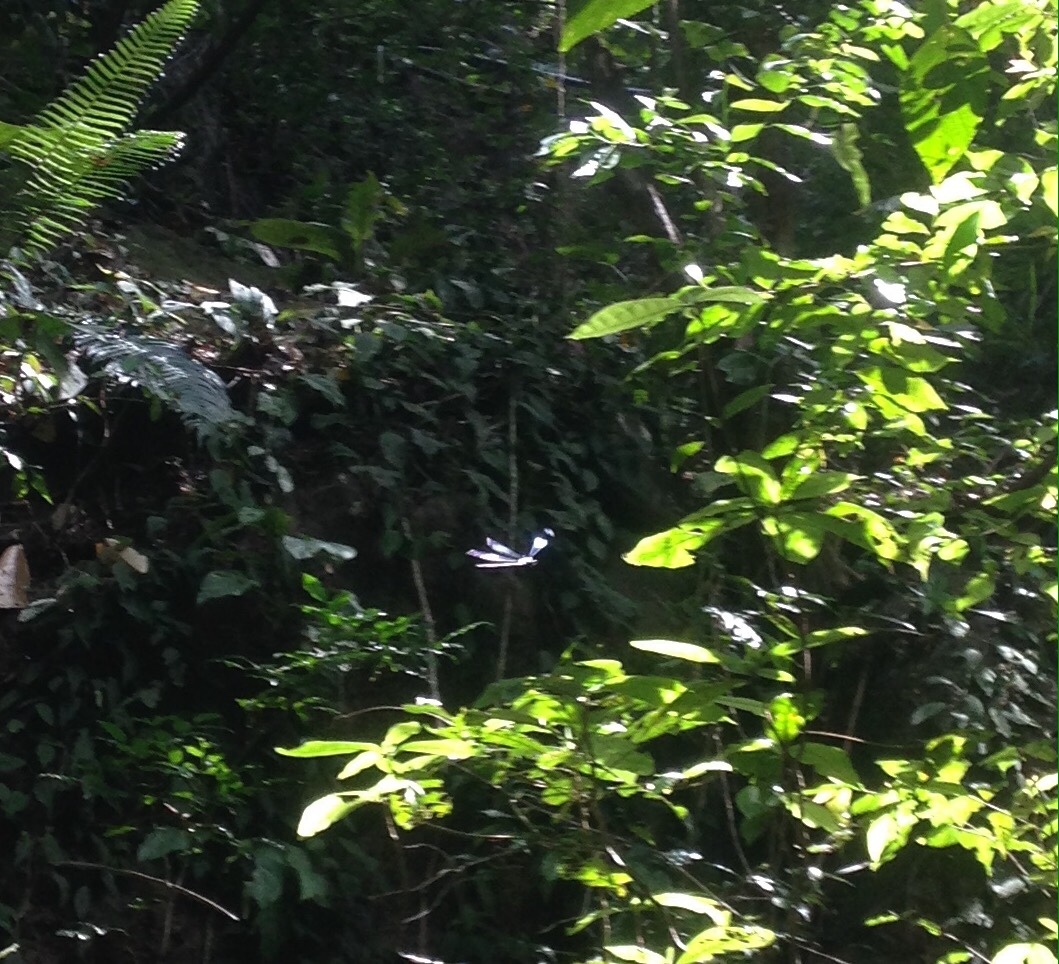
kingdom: Animalia
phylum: Arthropoda
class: Insecta
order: Odonata
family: Coenagrionidae
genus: Megaloprepus
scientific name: Megaloprepus caerulatus
